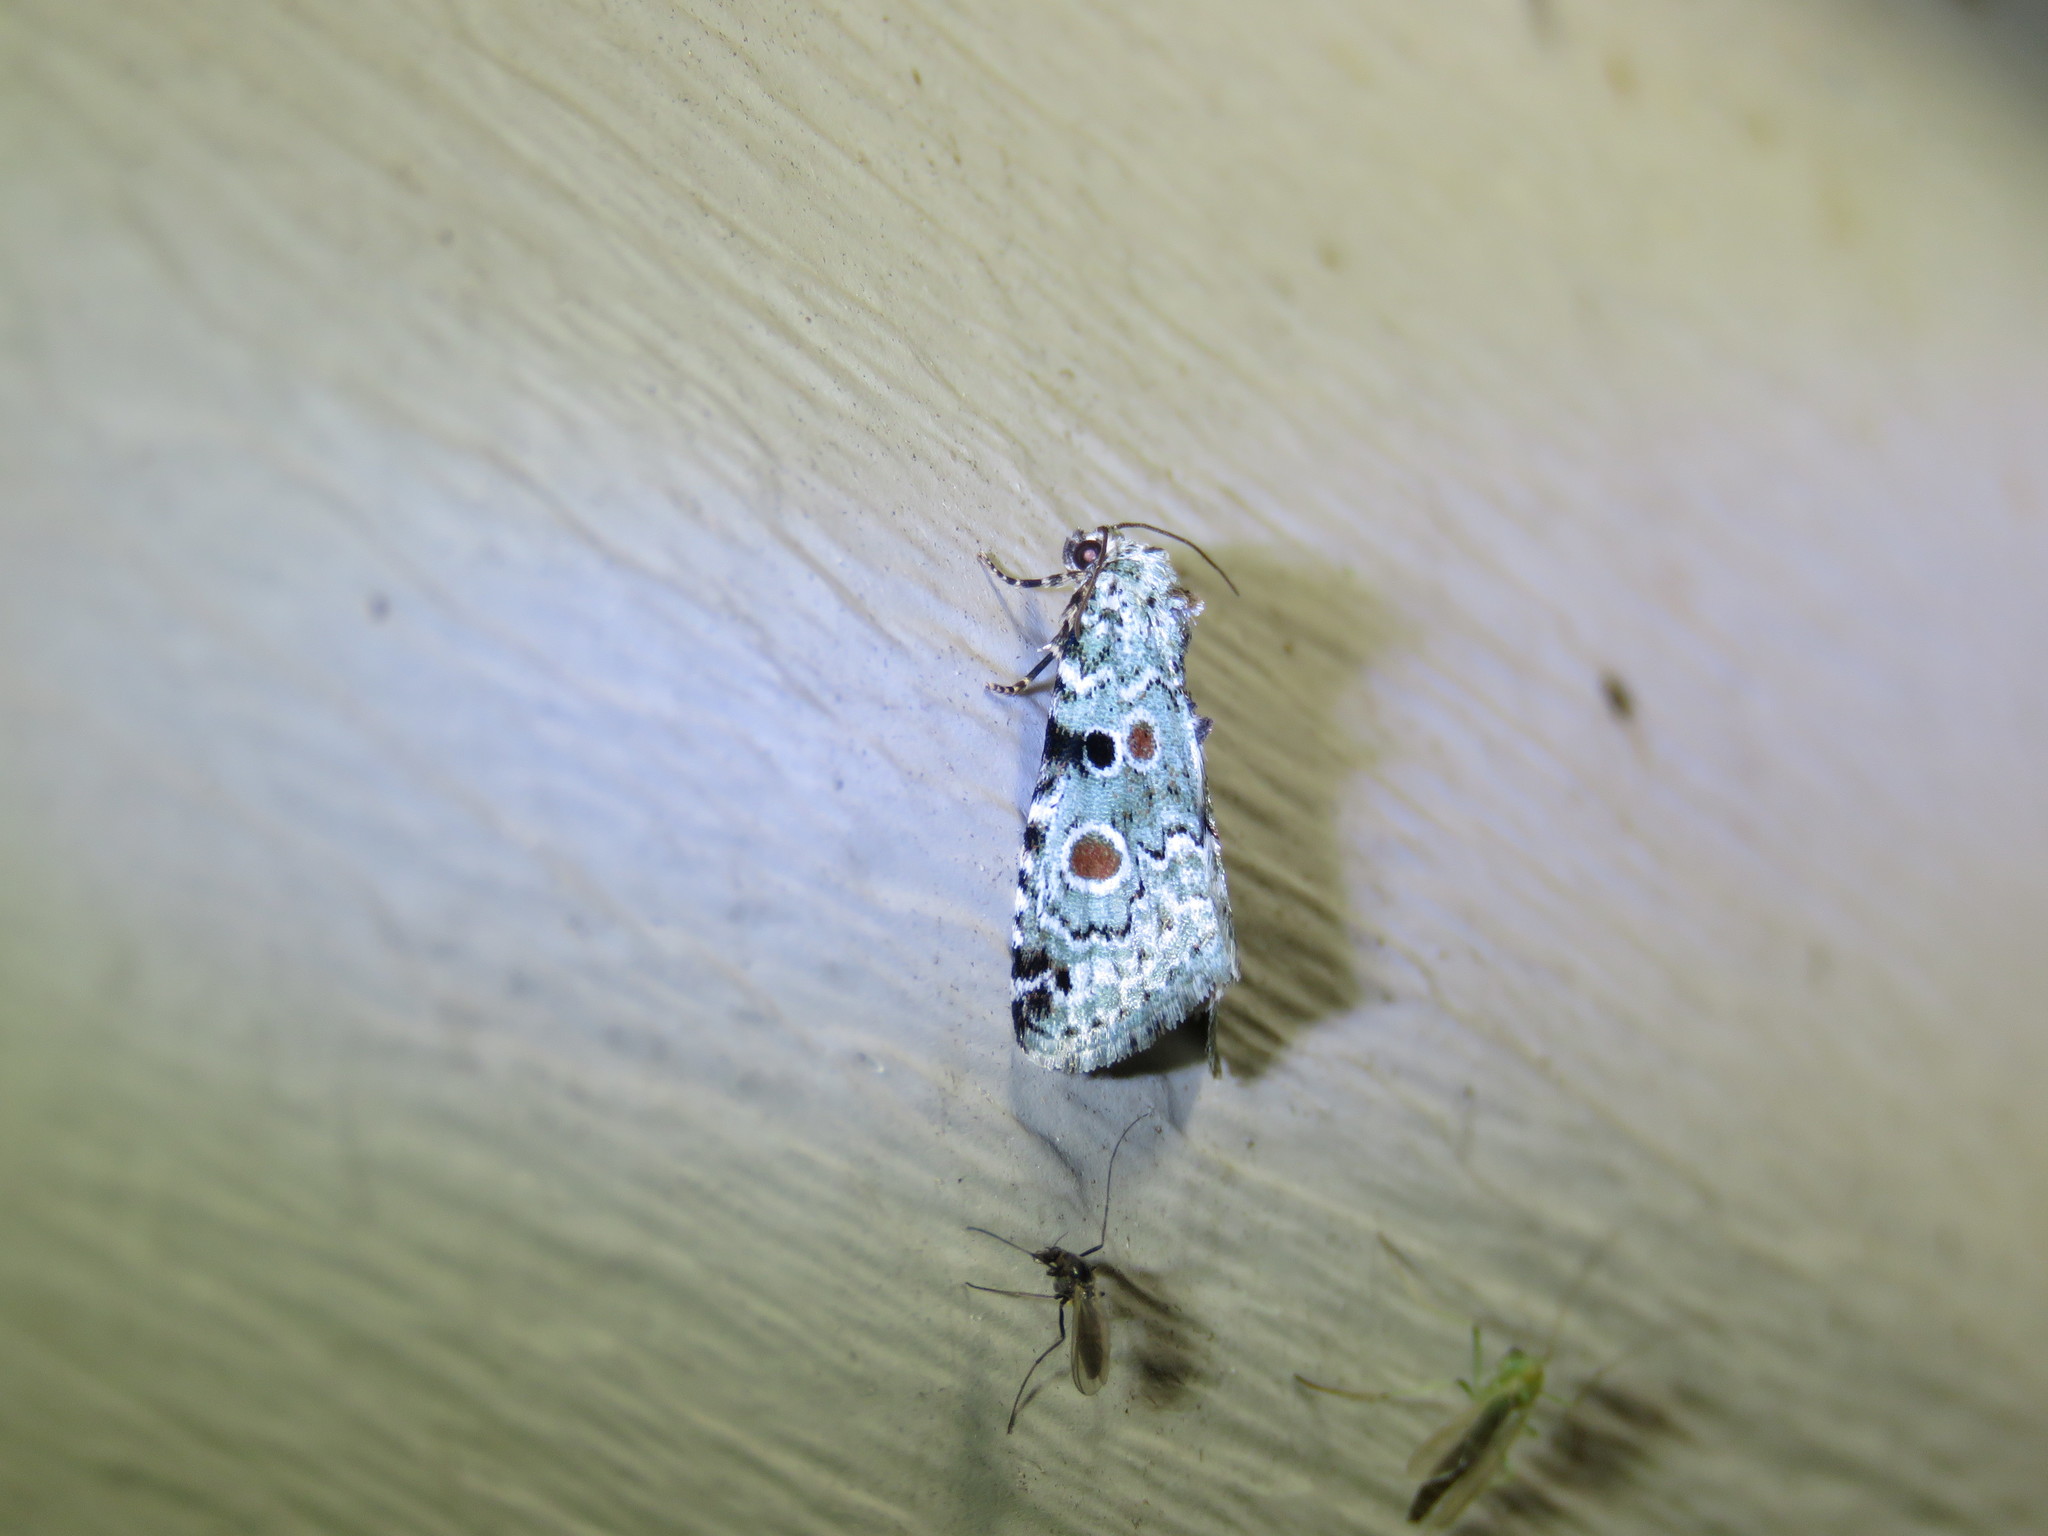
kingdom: Animalia
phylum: Arthropoda
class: Insecta
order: Lepidoptera
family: Noctuidae
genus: Maliattha
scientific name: Maliattha concinnimacula
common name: Red-spotted glyph
